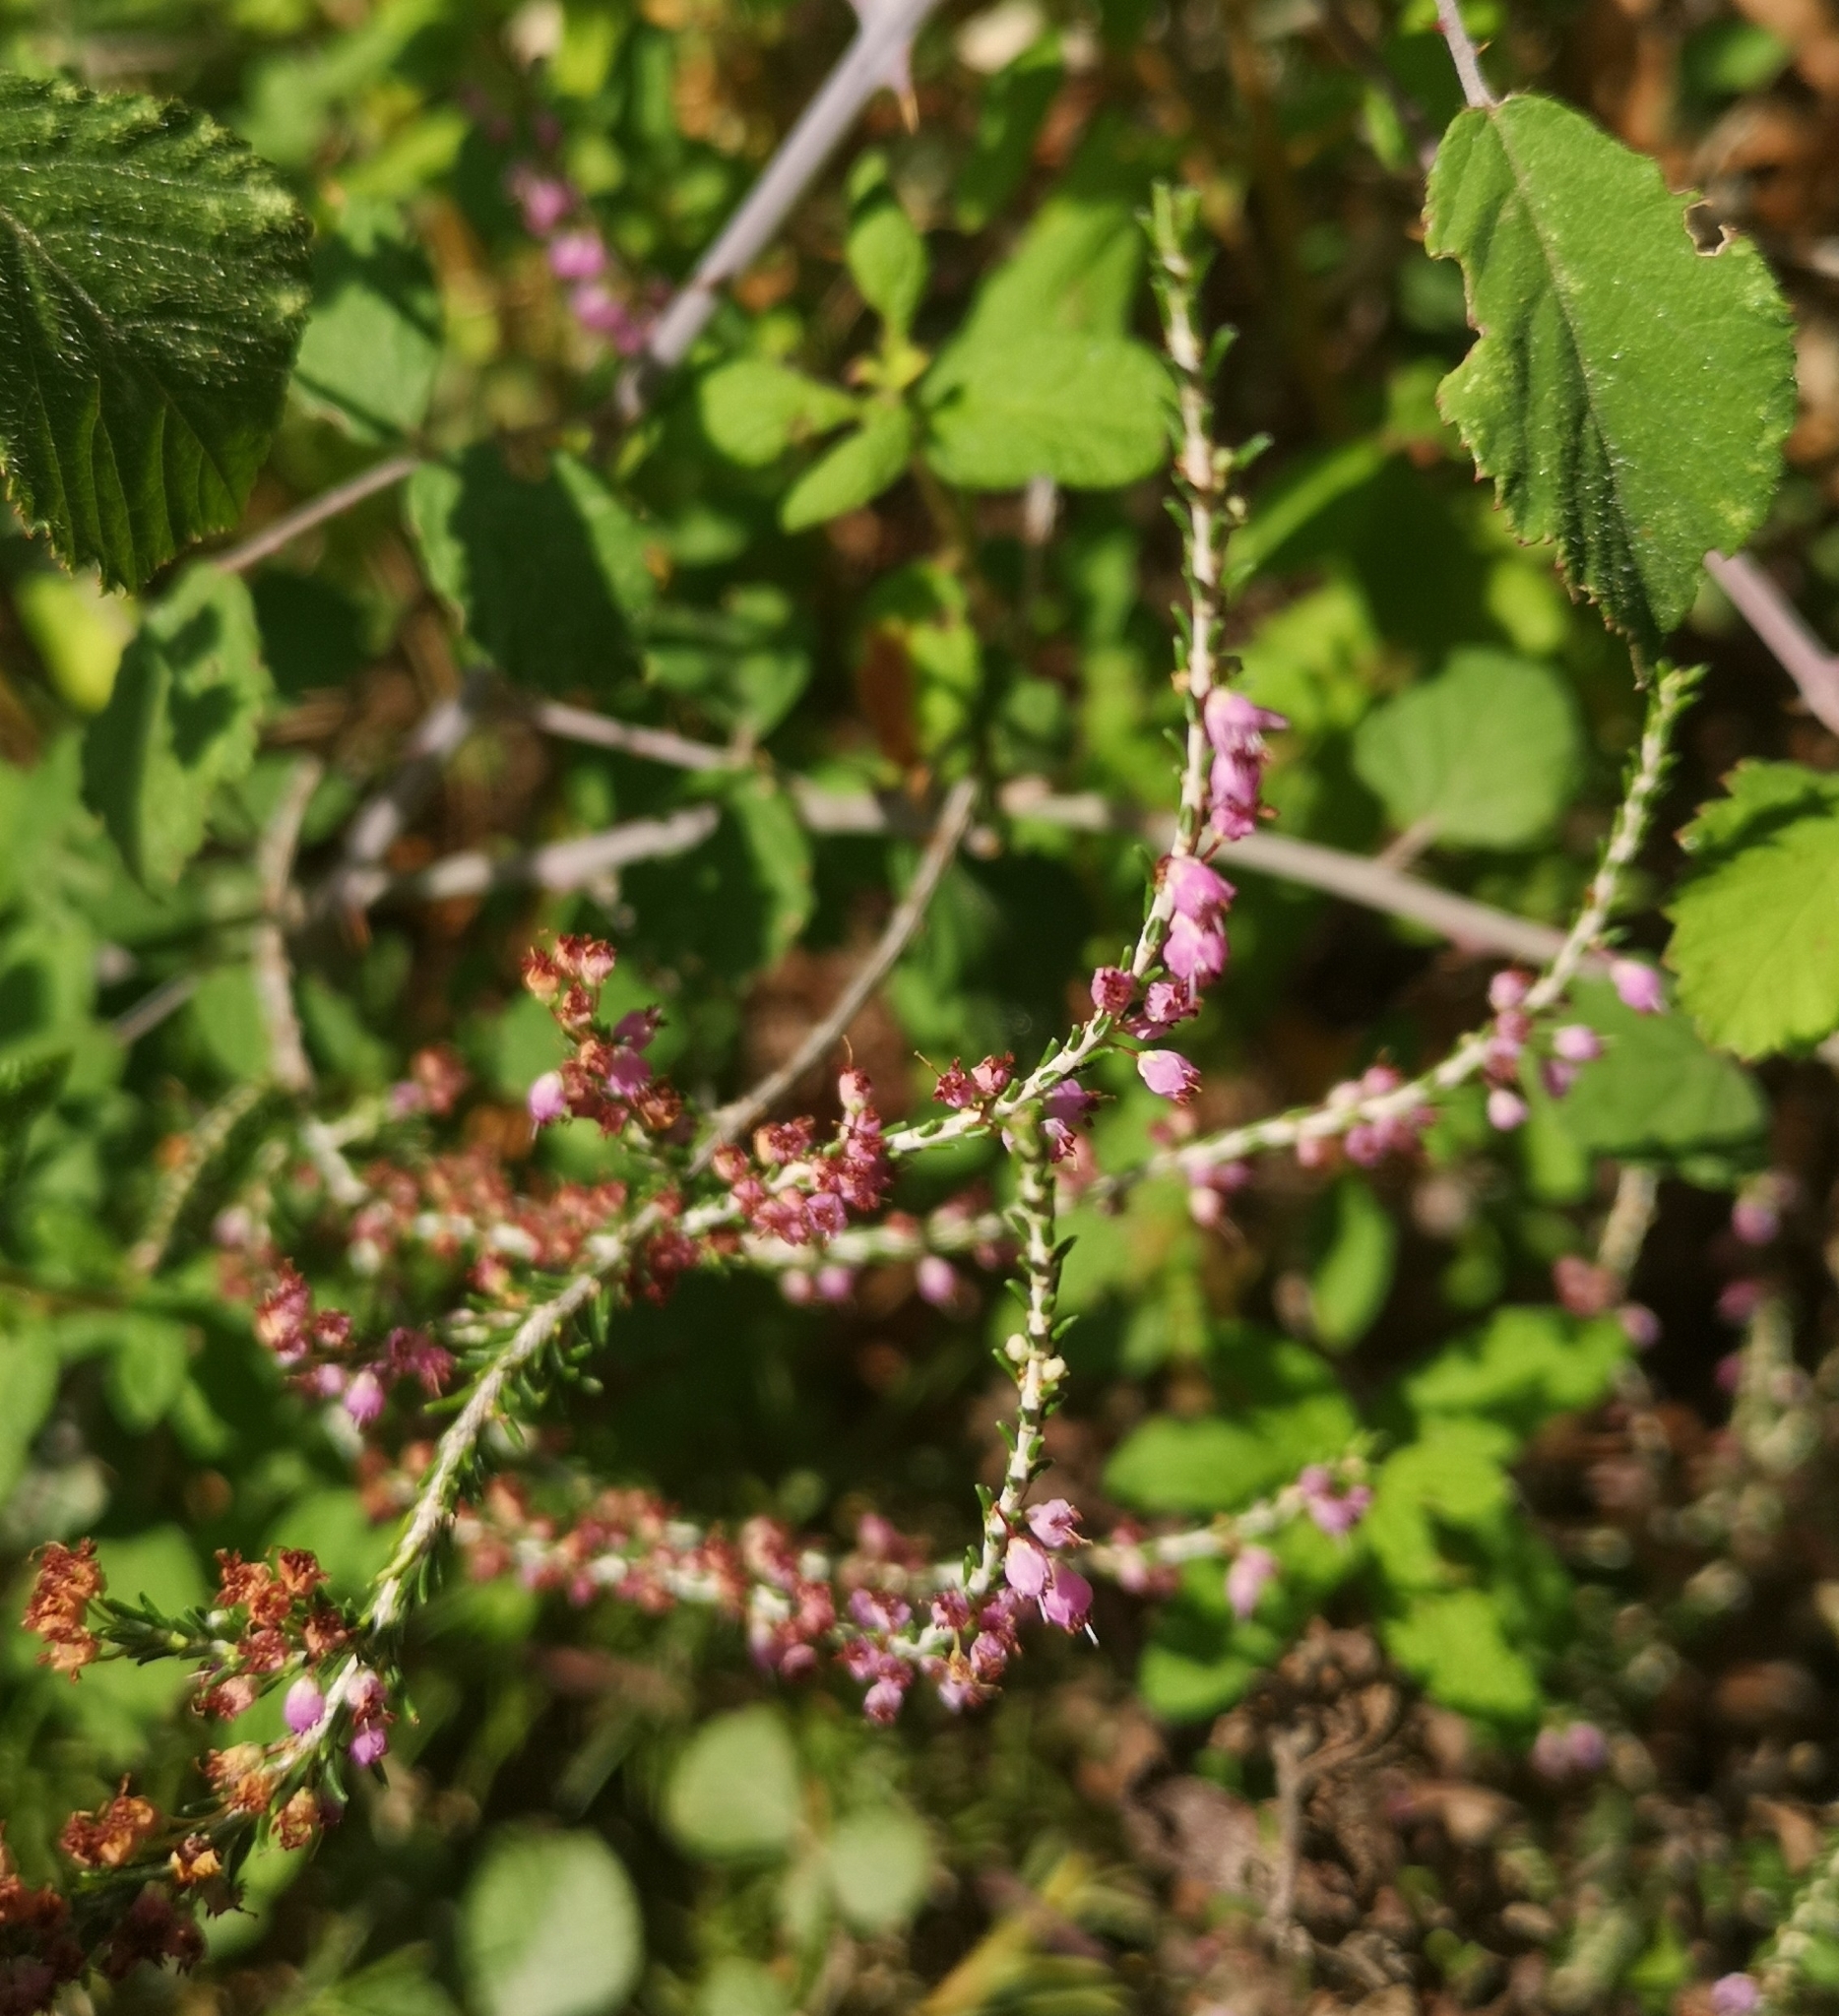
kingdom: Plantae
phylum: Tracheophyta
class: Magnoliopsida
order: Ericales
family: Ericaceae
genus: Erica
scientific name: Erica manipuliflora
